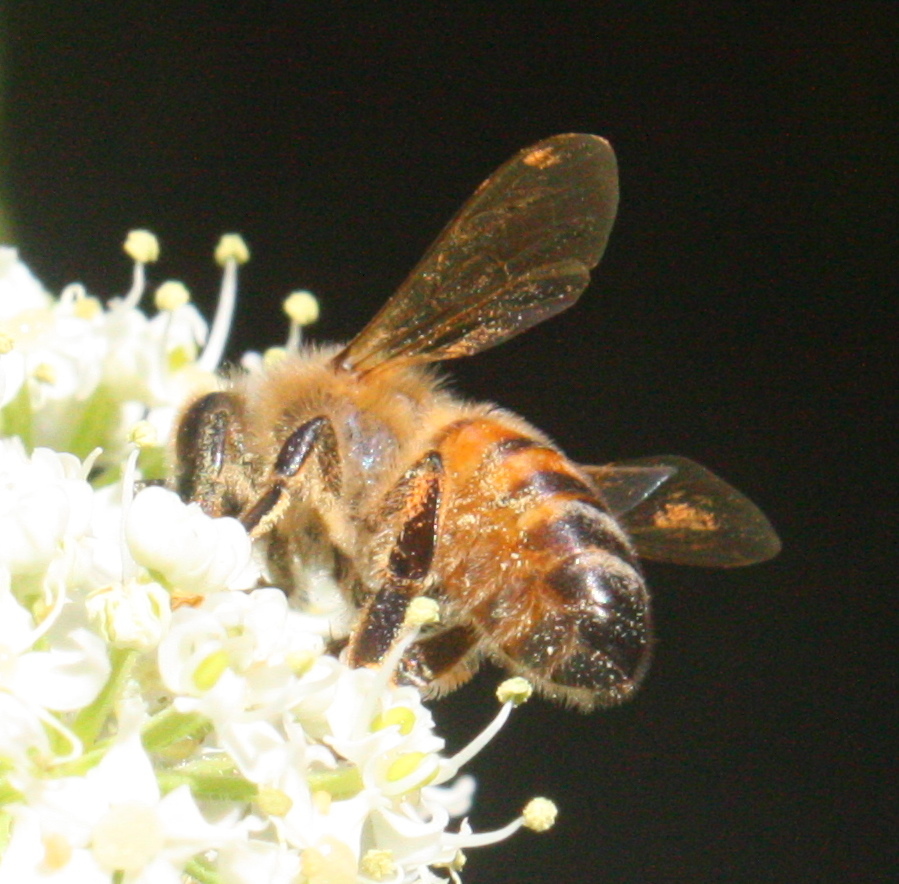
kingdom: Animalia
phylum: Arthropoda
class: Insecta
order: Hymenoptera
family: Apidae
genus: Apis
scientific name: Apis mellifera
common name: Honey bee
